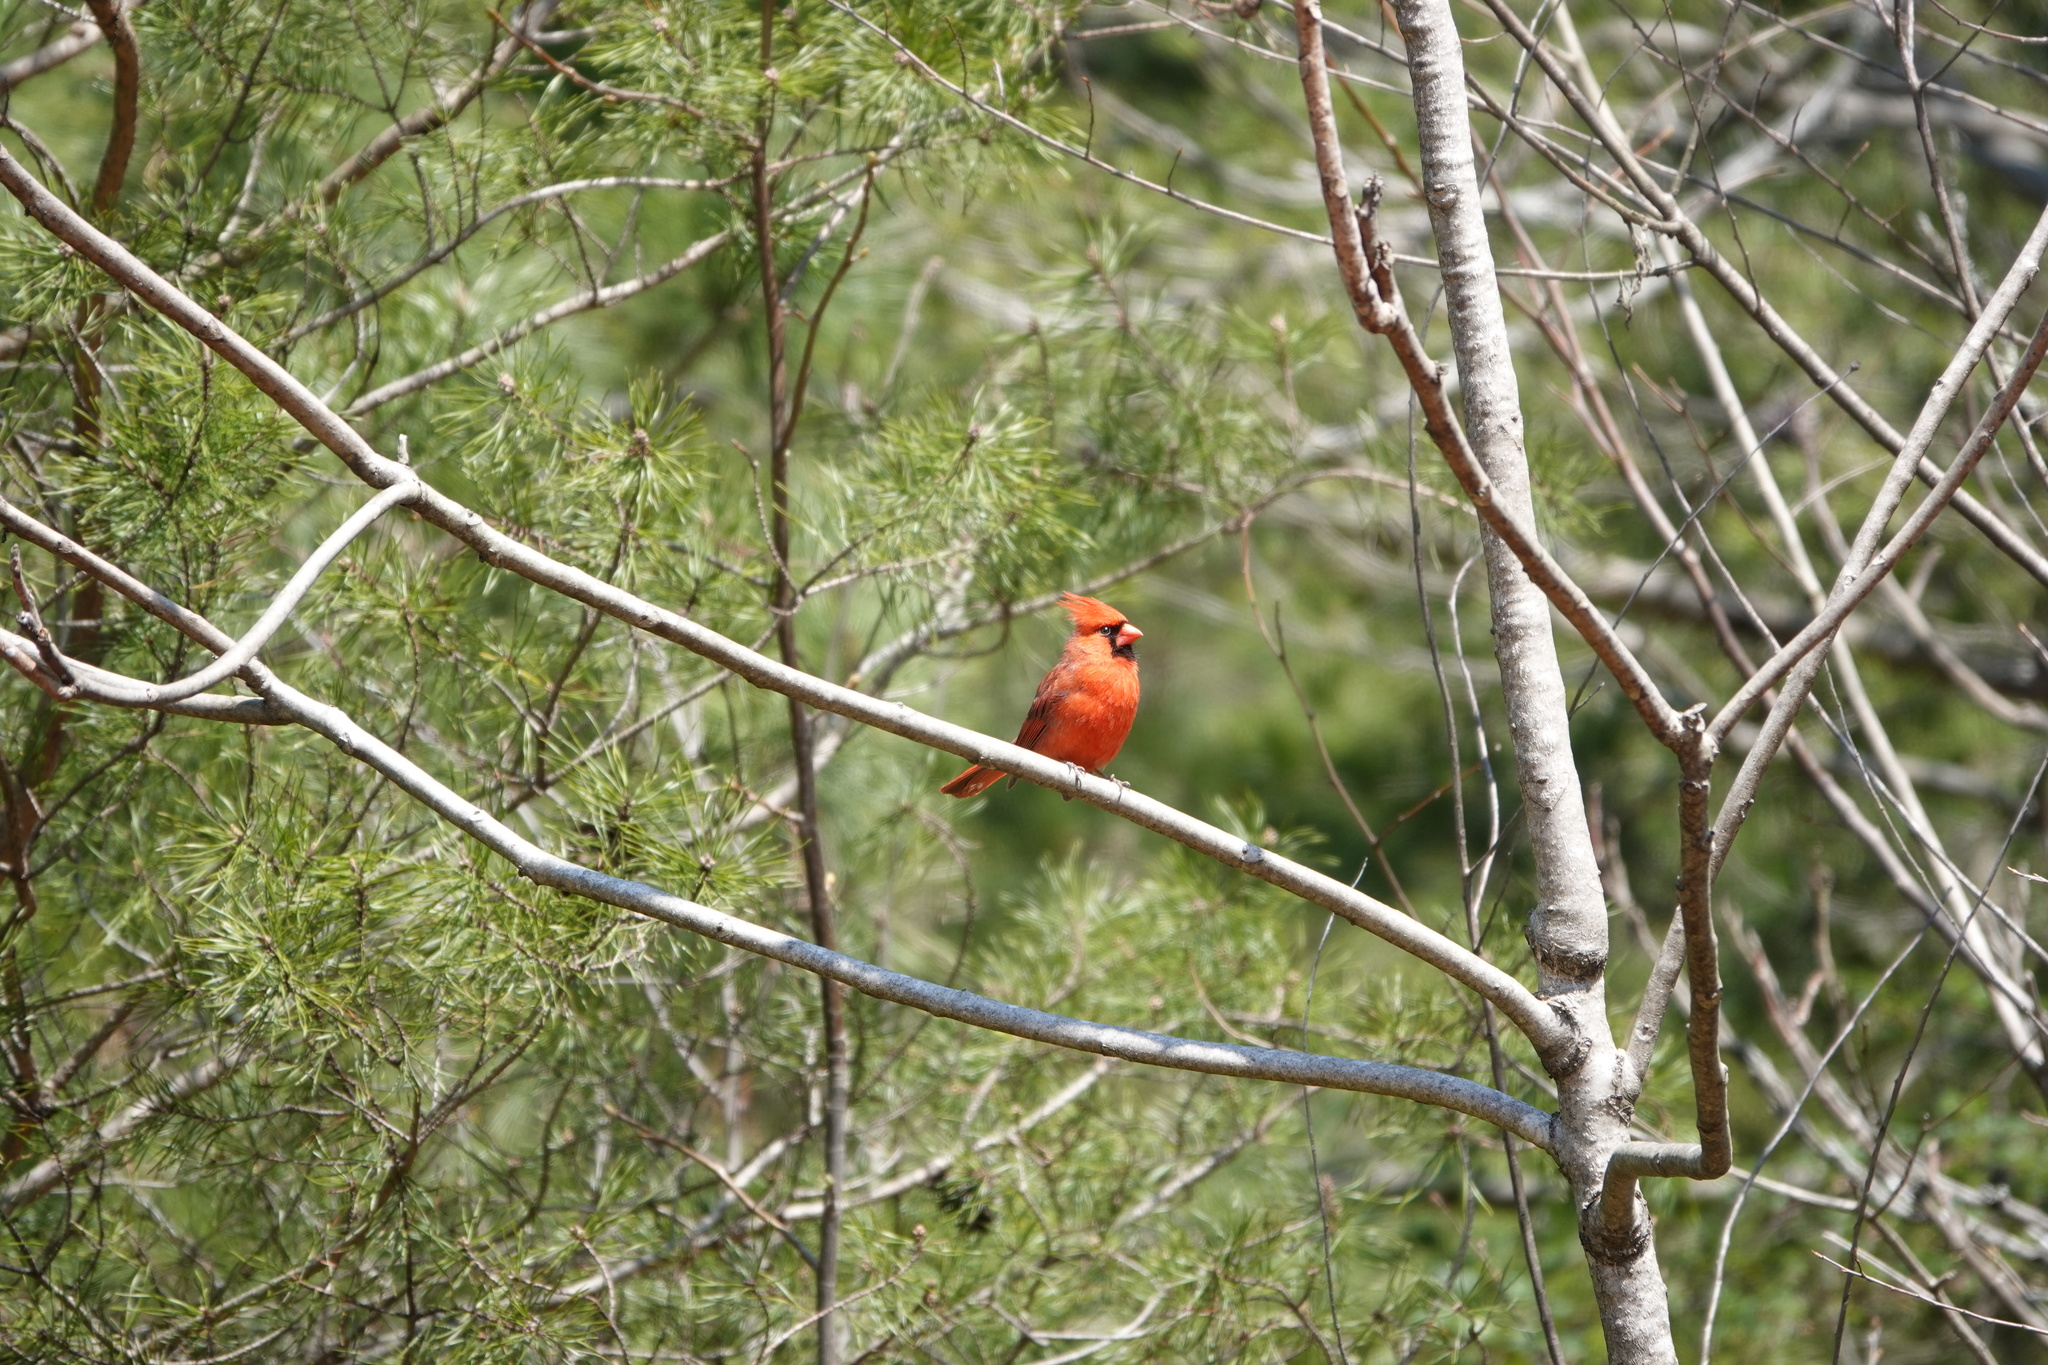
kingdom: Animalia
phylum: Chordata
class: Aves
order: Passeriformes
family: Cardinalidae
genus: Cardinalis
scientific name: Cardinalis cardinalis
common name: Northern cardinal
